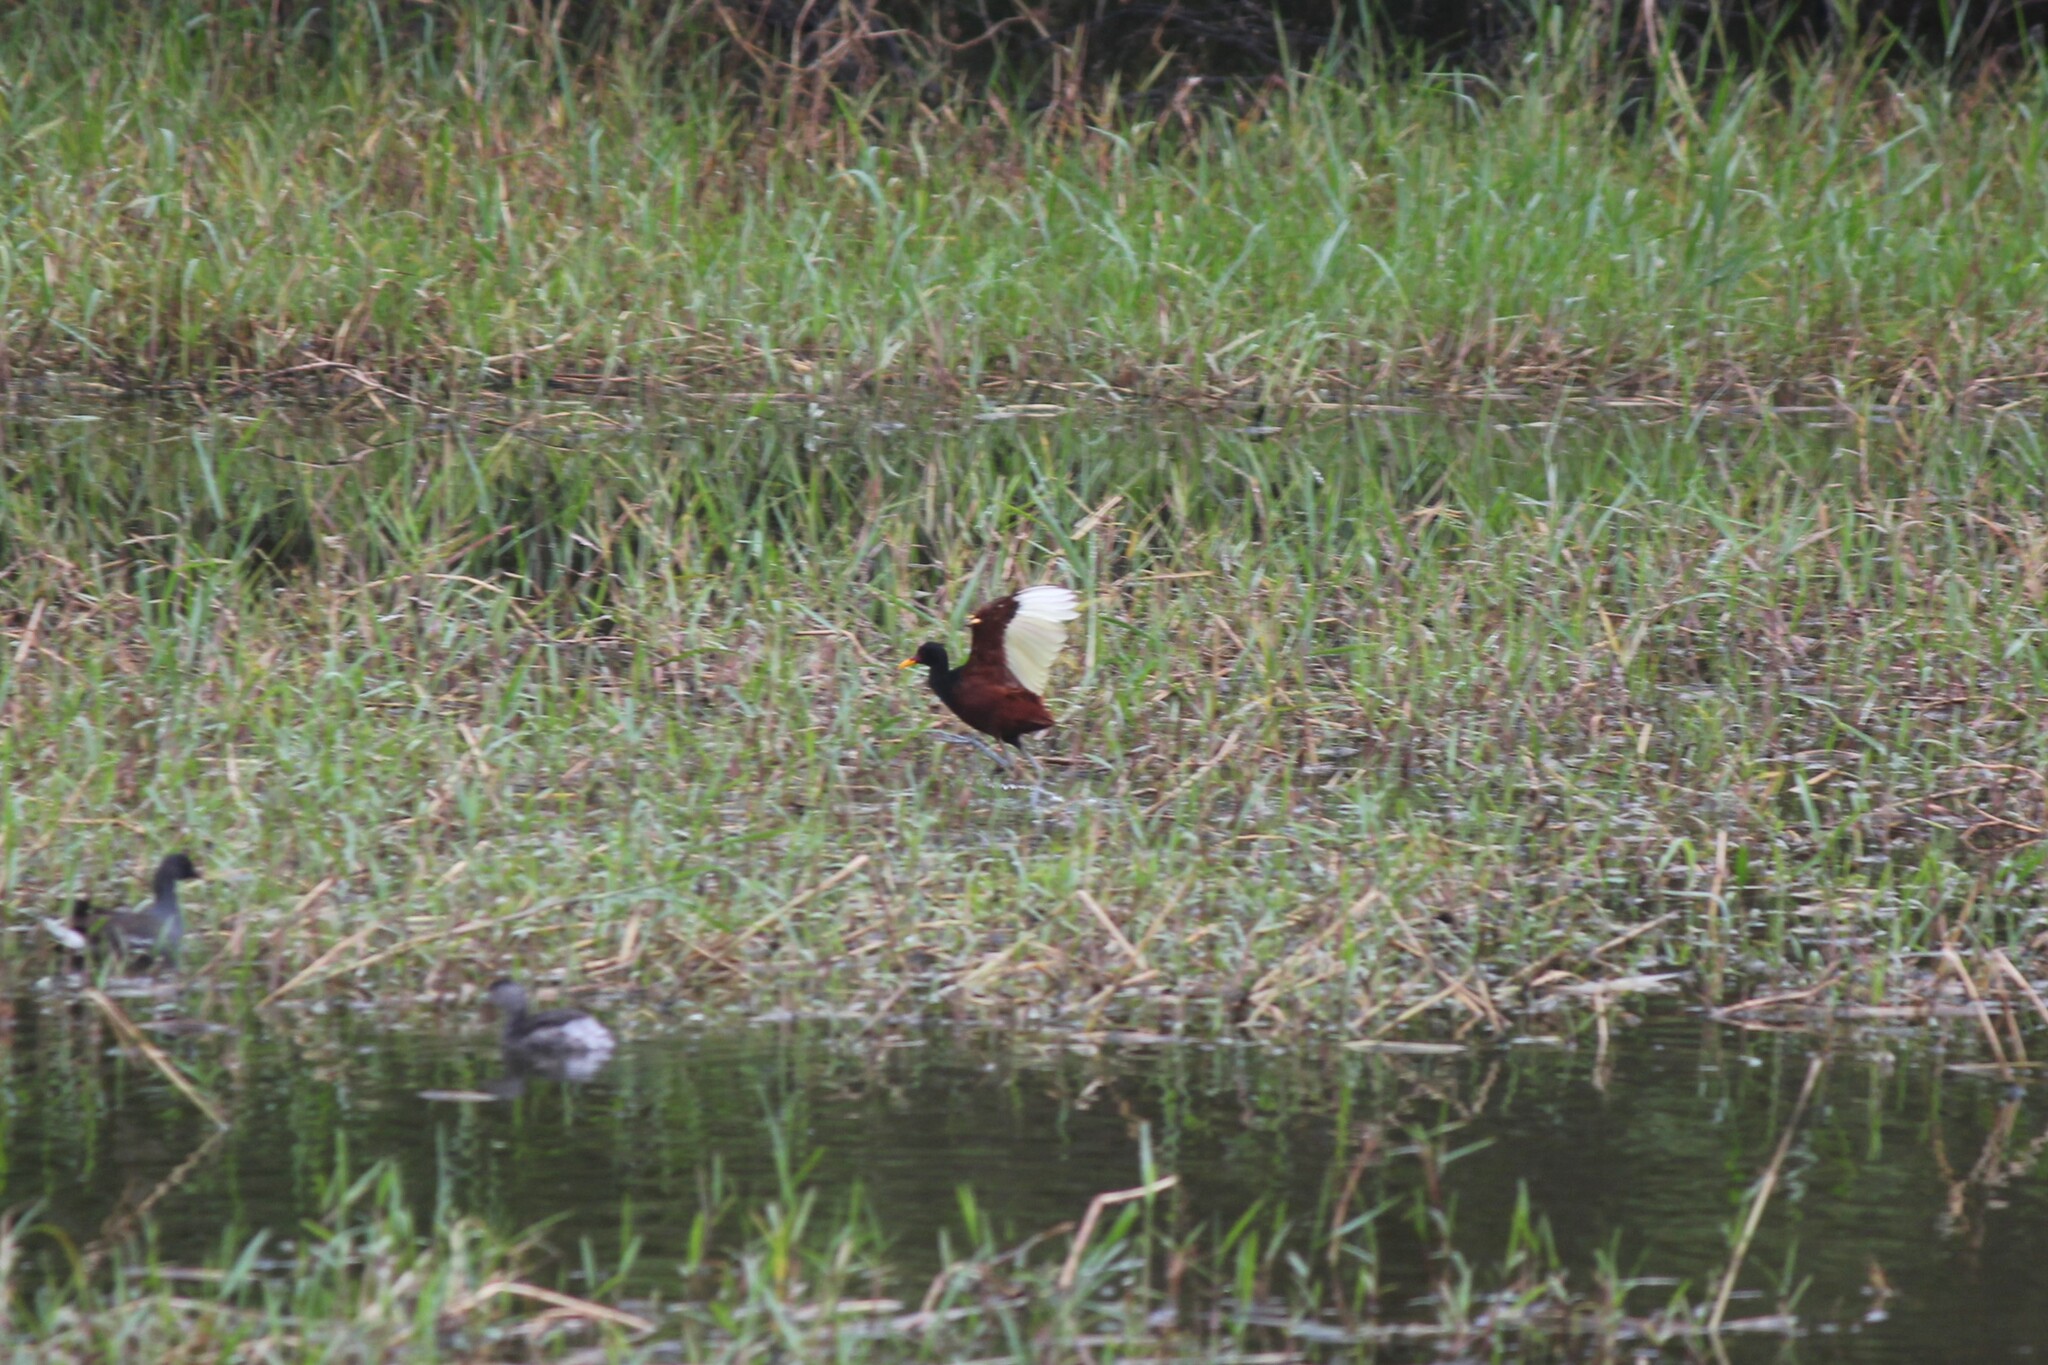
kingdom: Animalia
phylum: Chordata
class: Aves
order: Charadriiformes
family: Jacanidae
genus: Jacana
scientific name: Jacana jacana
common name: Wattled jacana
